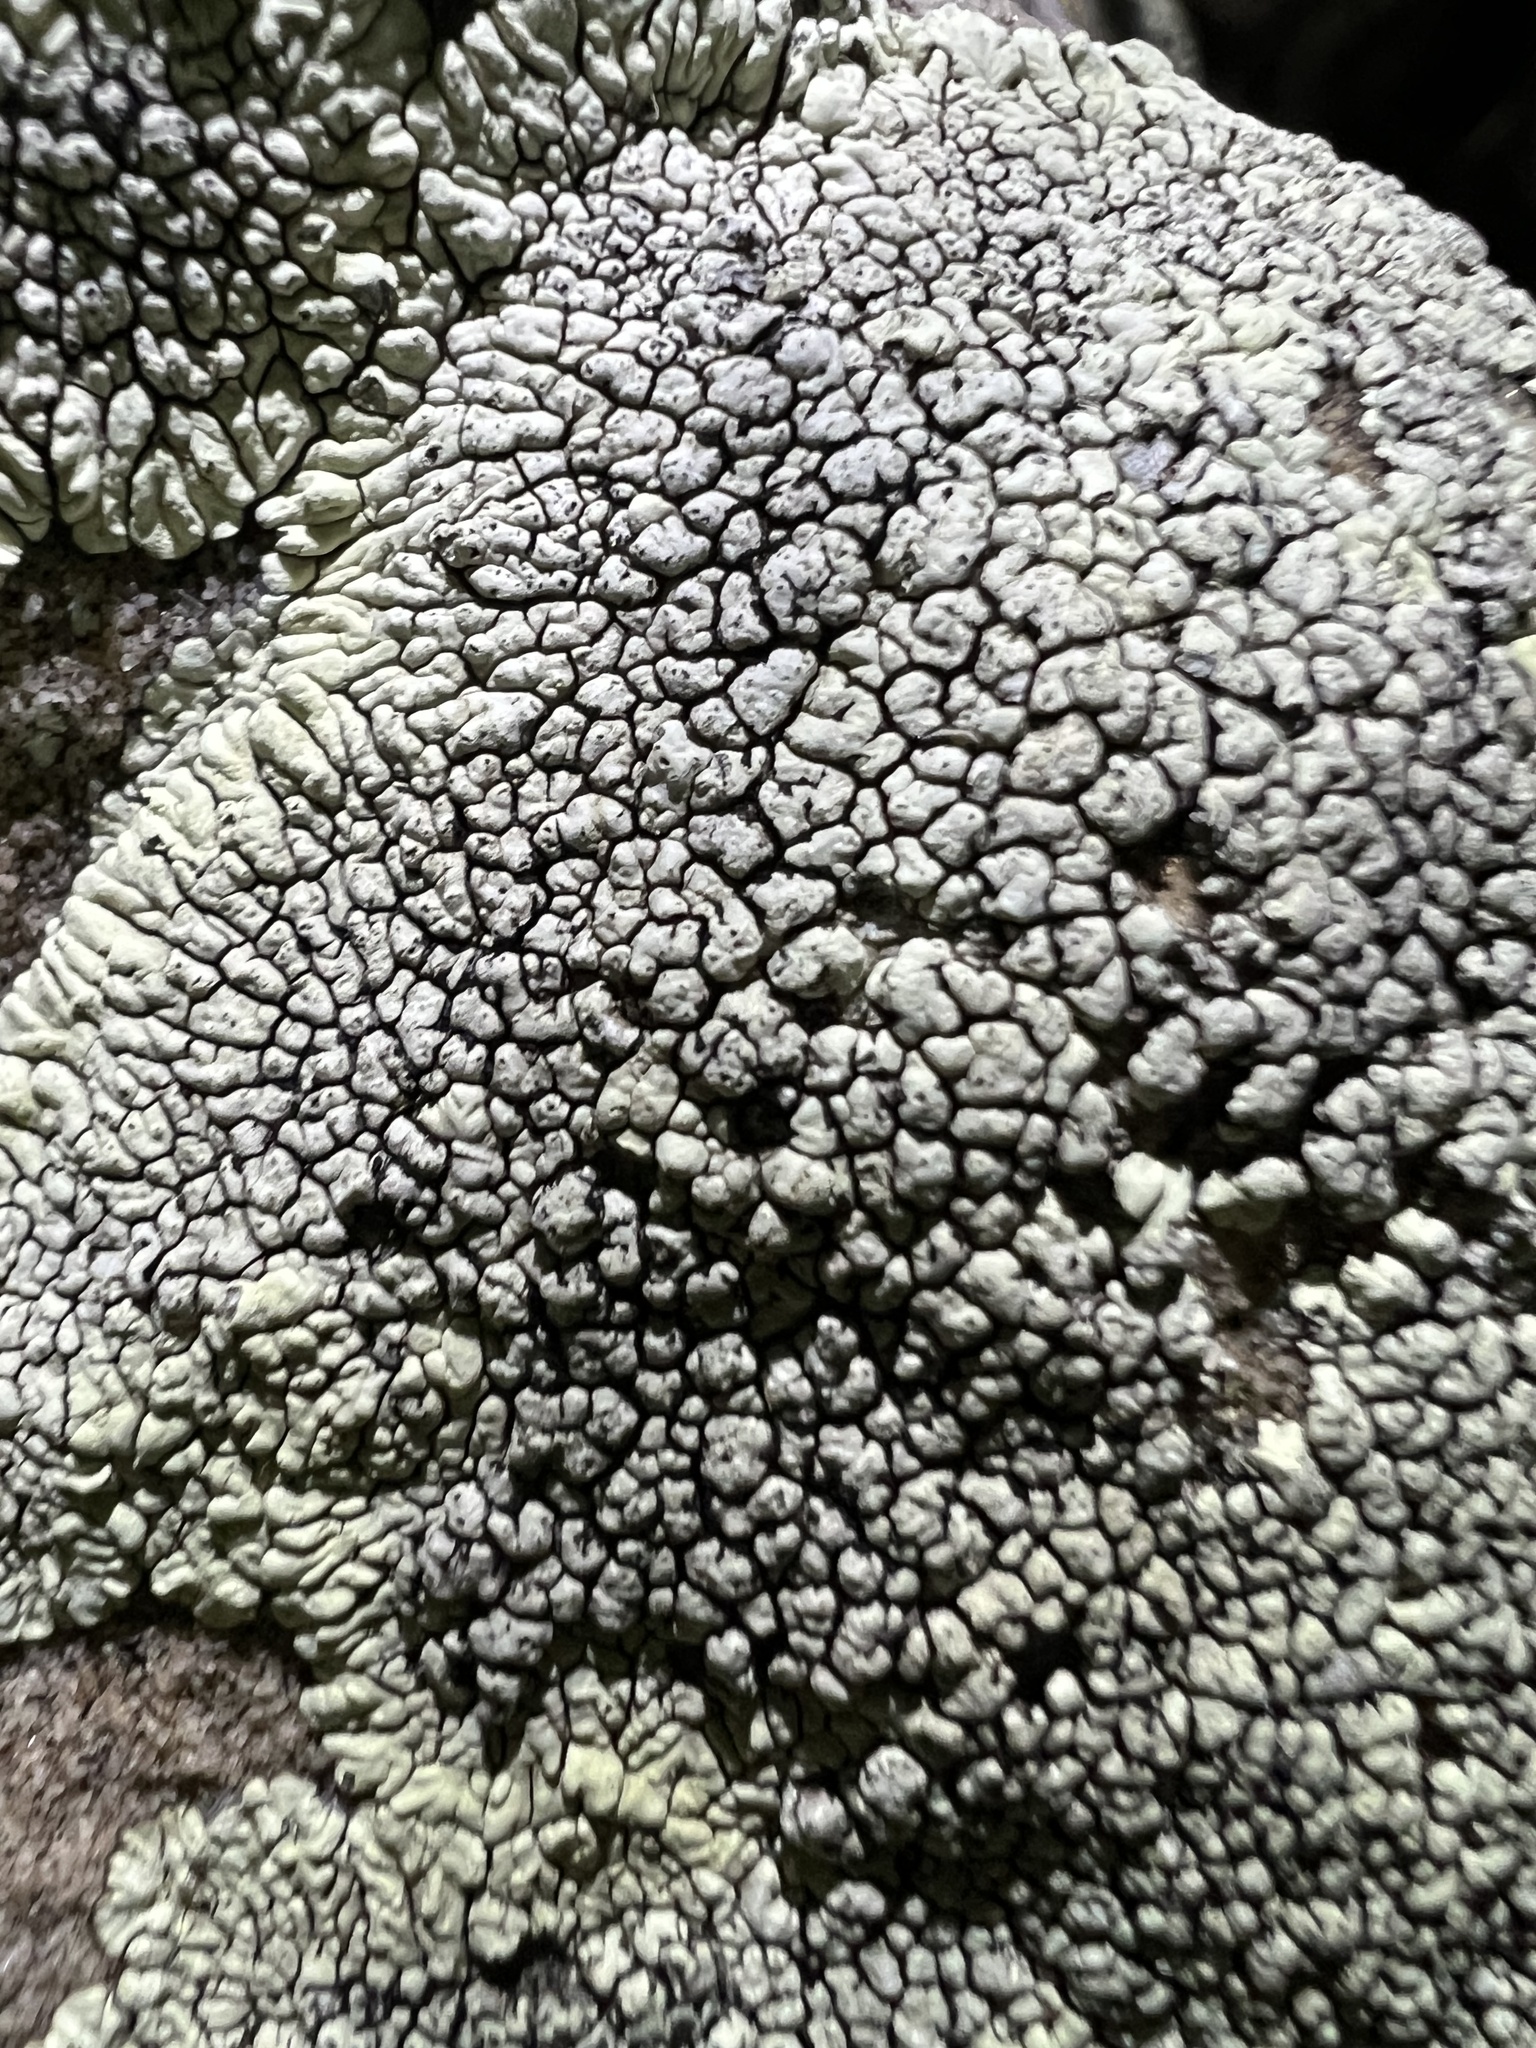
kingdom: Fungi
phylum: Ascomycota
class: Lecanoromycetes
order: Caliciales
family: Caliciaceae
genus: Dimelaena
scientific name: Dimelaena oreina
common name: Golden moonglow lichen
